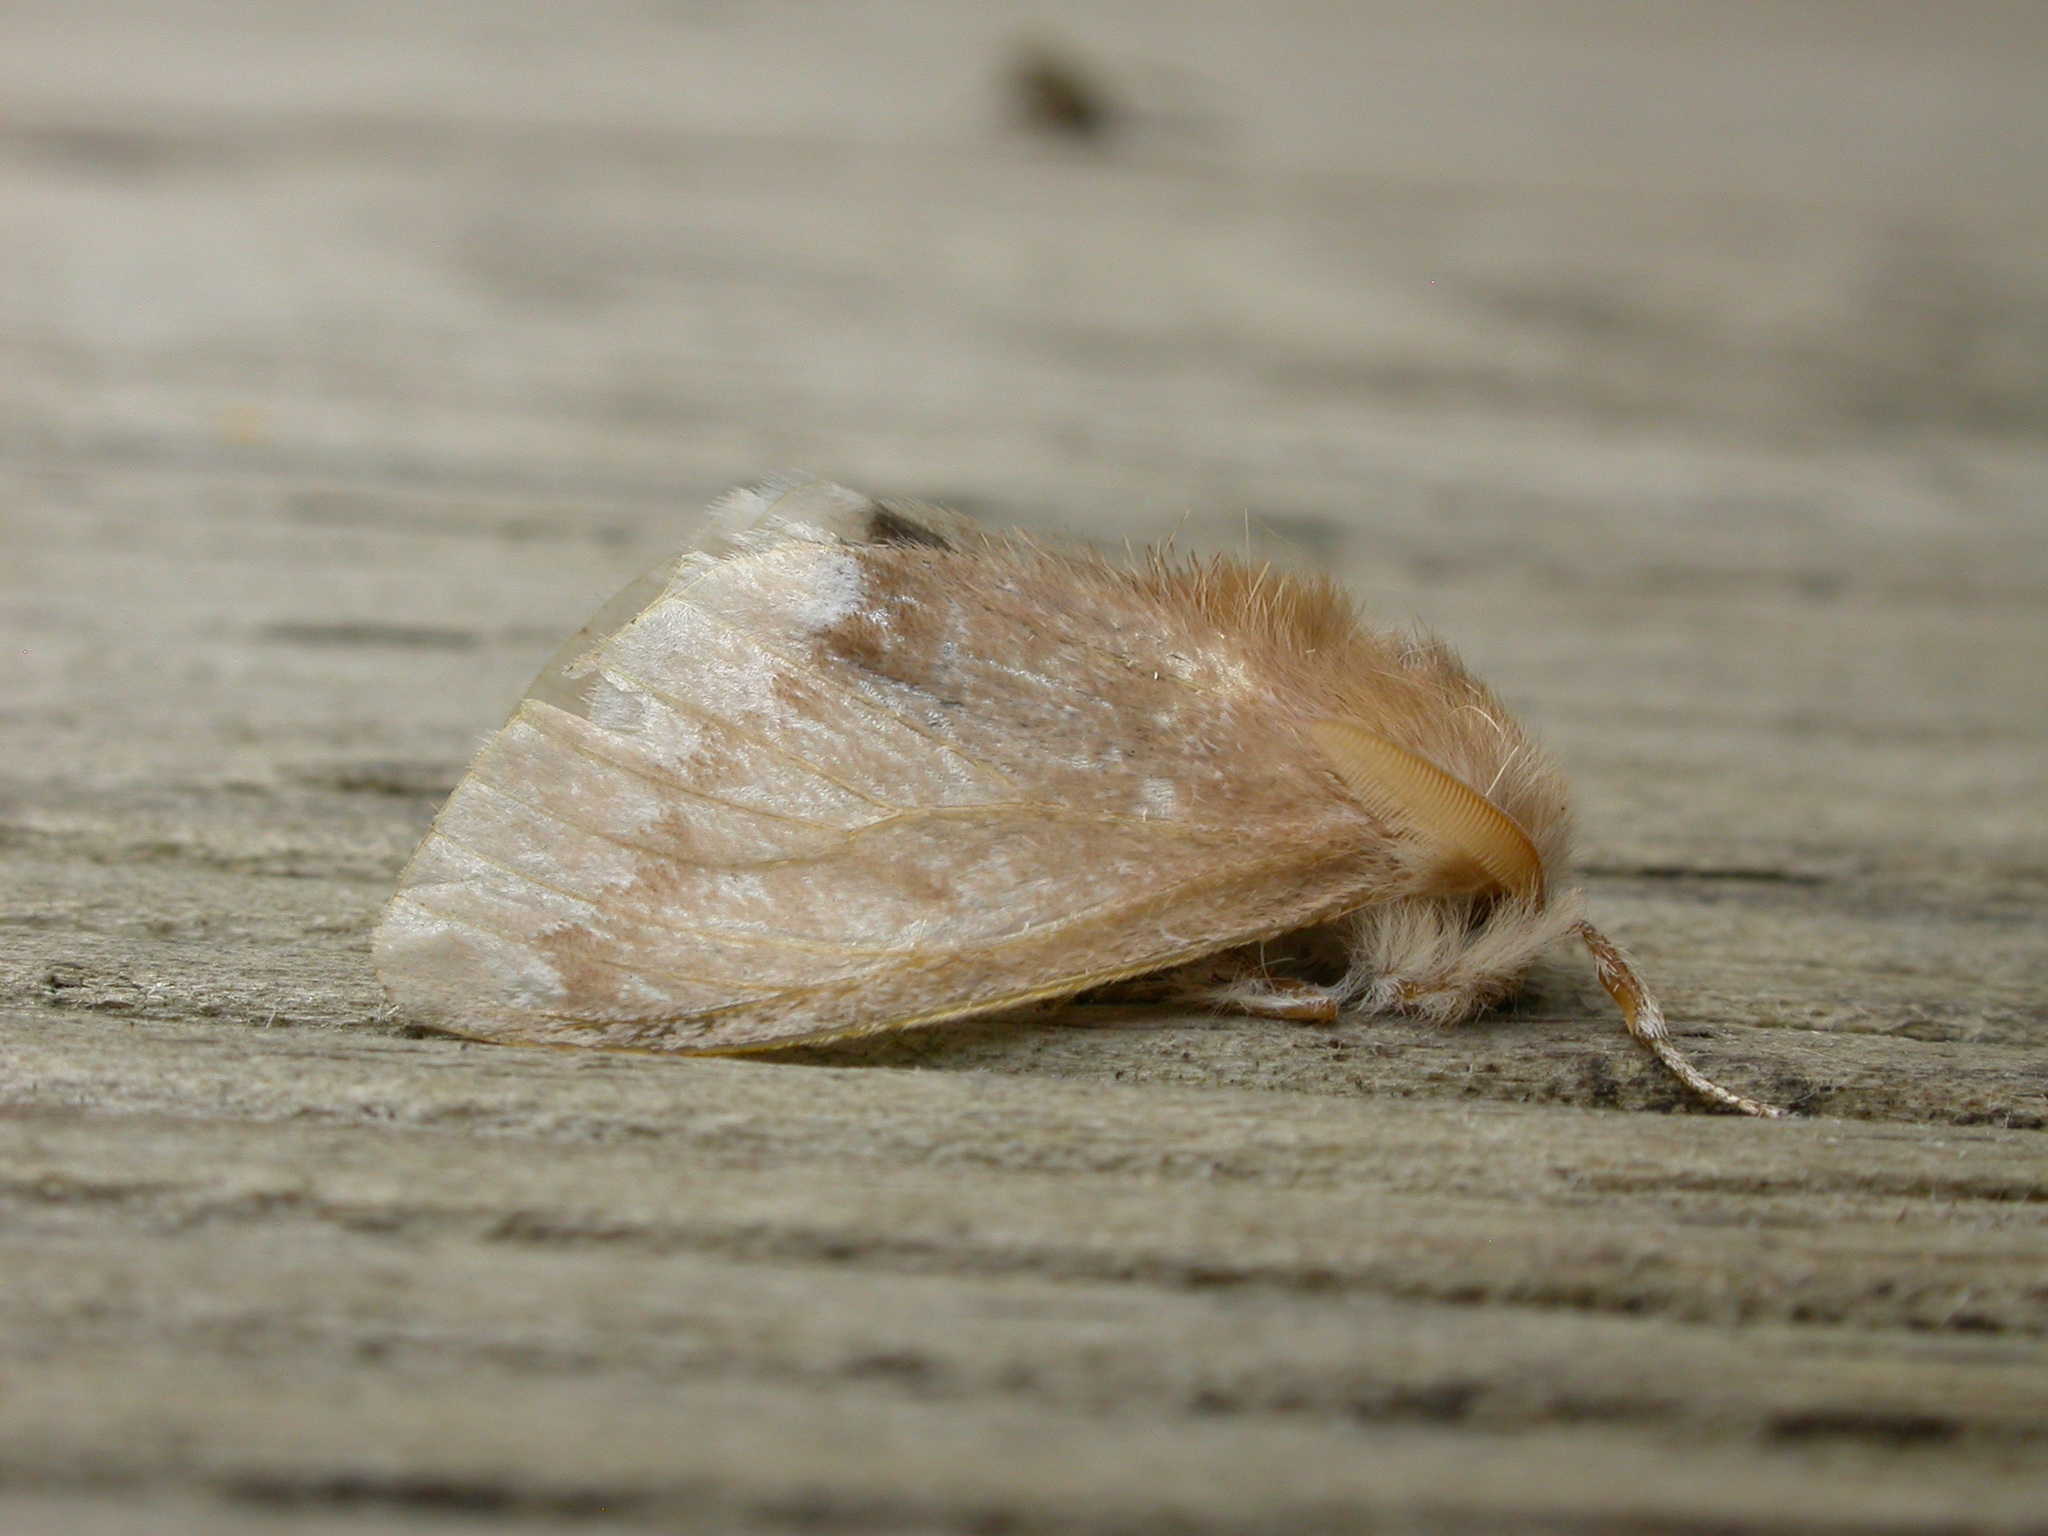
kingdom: Animalia
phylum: Arthropoda
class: Insecta
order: Lepidoptera
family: Erebidae
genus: Euproctis
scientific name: Euproctis
